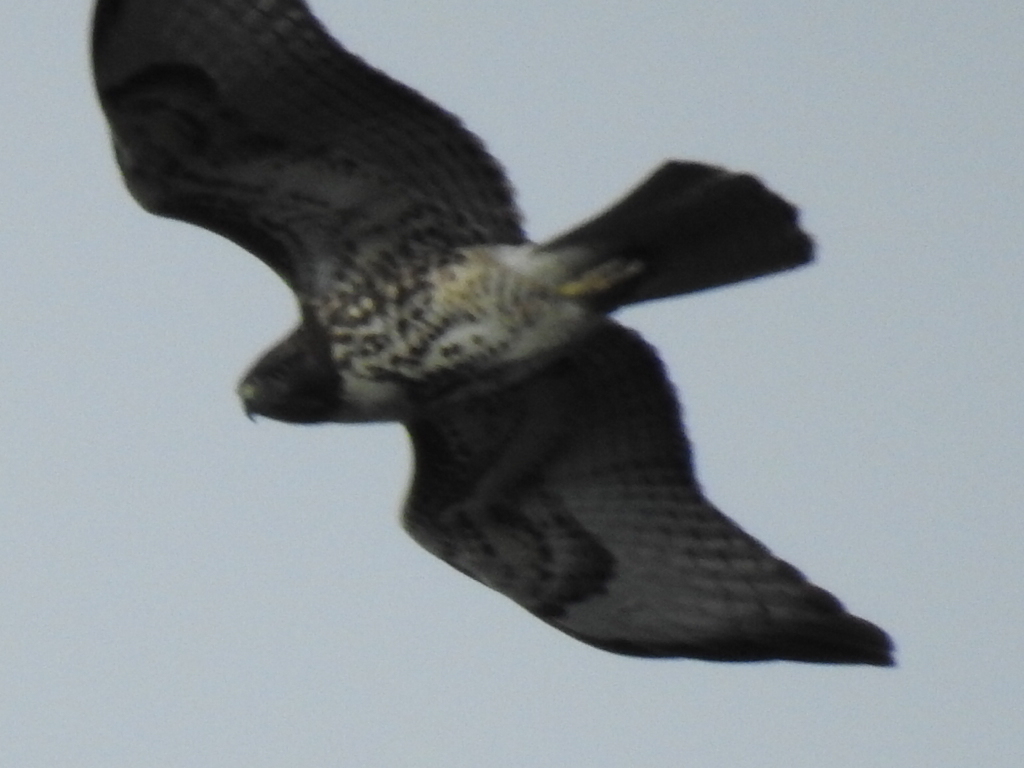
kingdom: Animalia
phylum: Chordata
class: Aves
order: Accipitriformes
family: Accipitridae
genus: Buteo
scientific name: Buteo jamaicensis
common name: Red-tailed hawk
